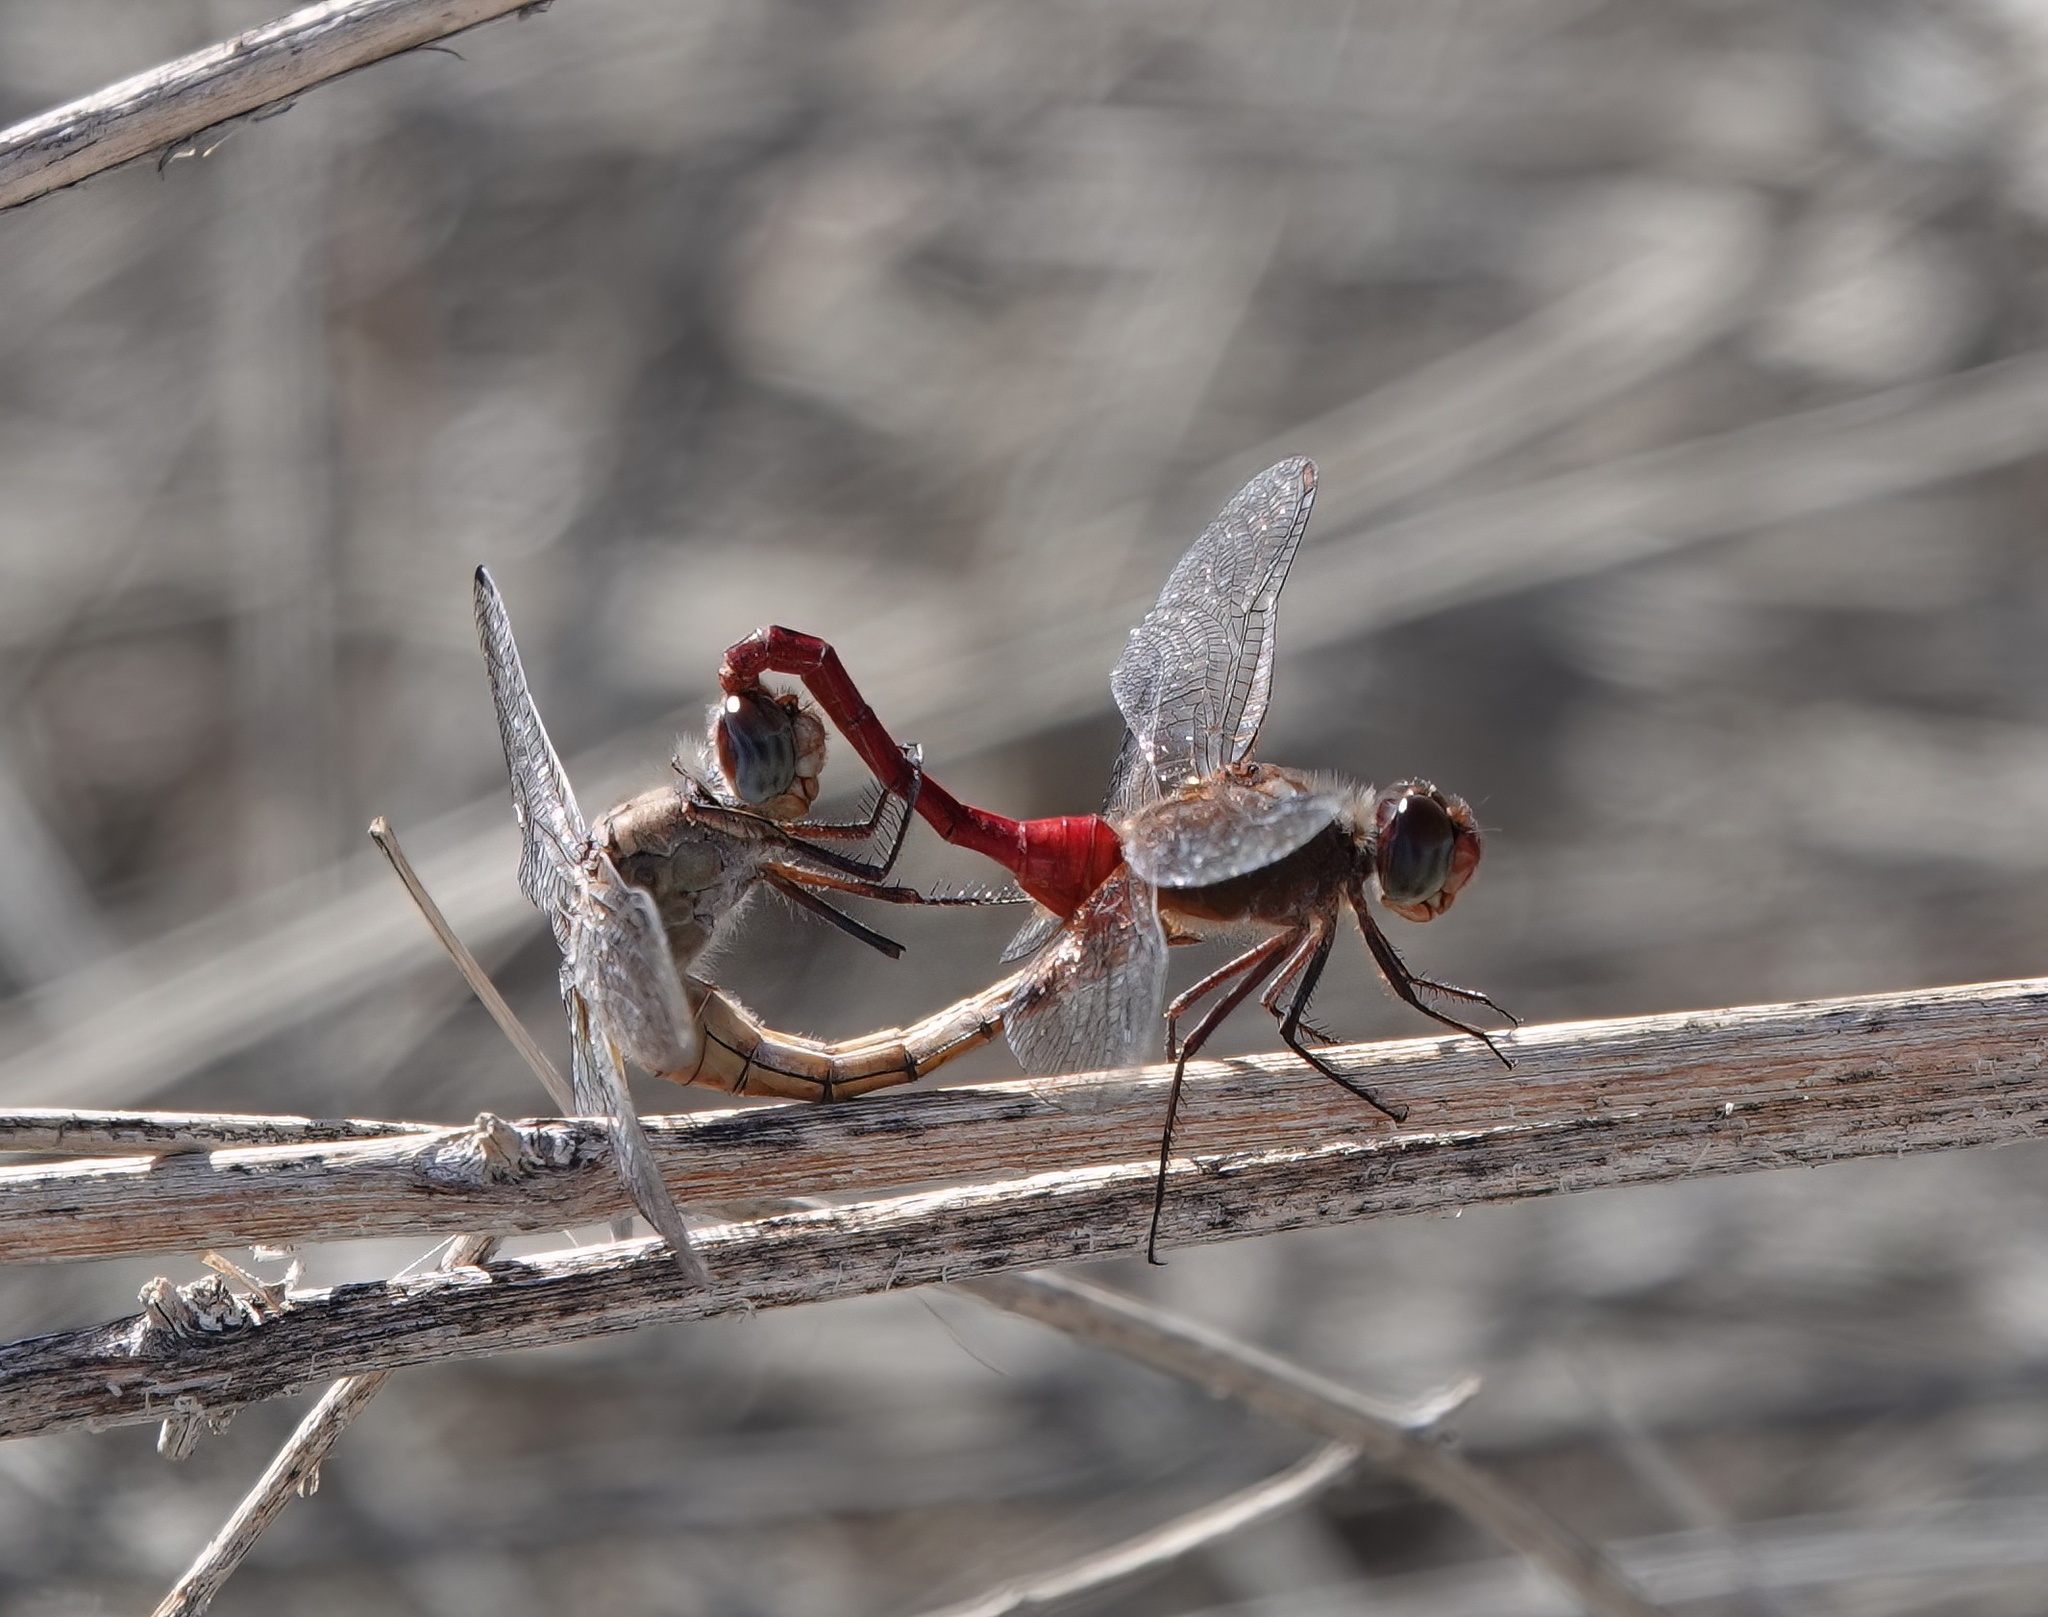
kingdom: Animalia
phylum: Arthropoda
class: Insecta
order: Odonata
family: Libellulidae
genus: Brachymesia
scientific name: Brachymesia furcata
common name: Red-taled pennant
